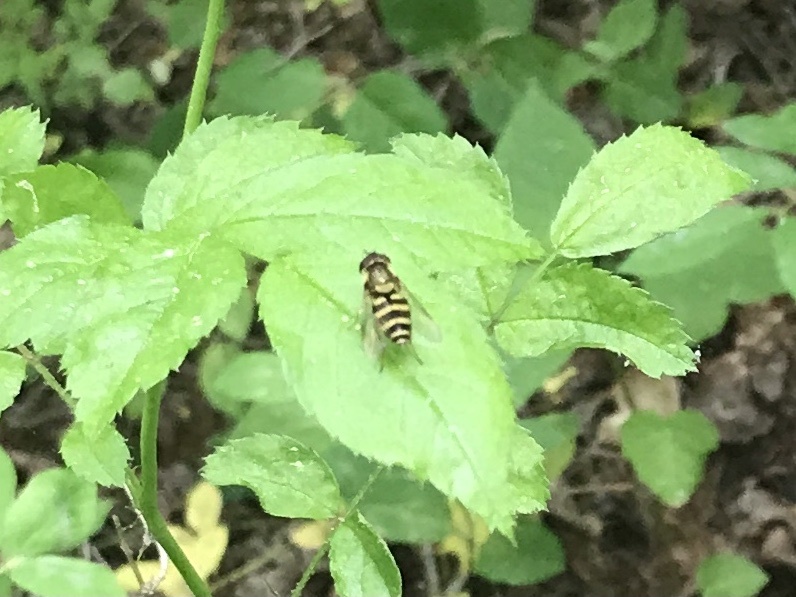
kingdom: Animalia
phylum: Arthropoda
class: Insecta
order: Diptera
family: Syrphidae
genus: Syrphus
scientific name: Syrphus
